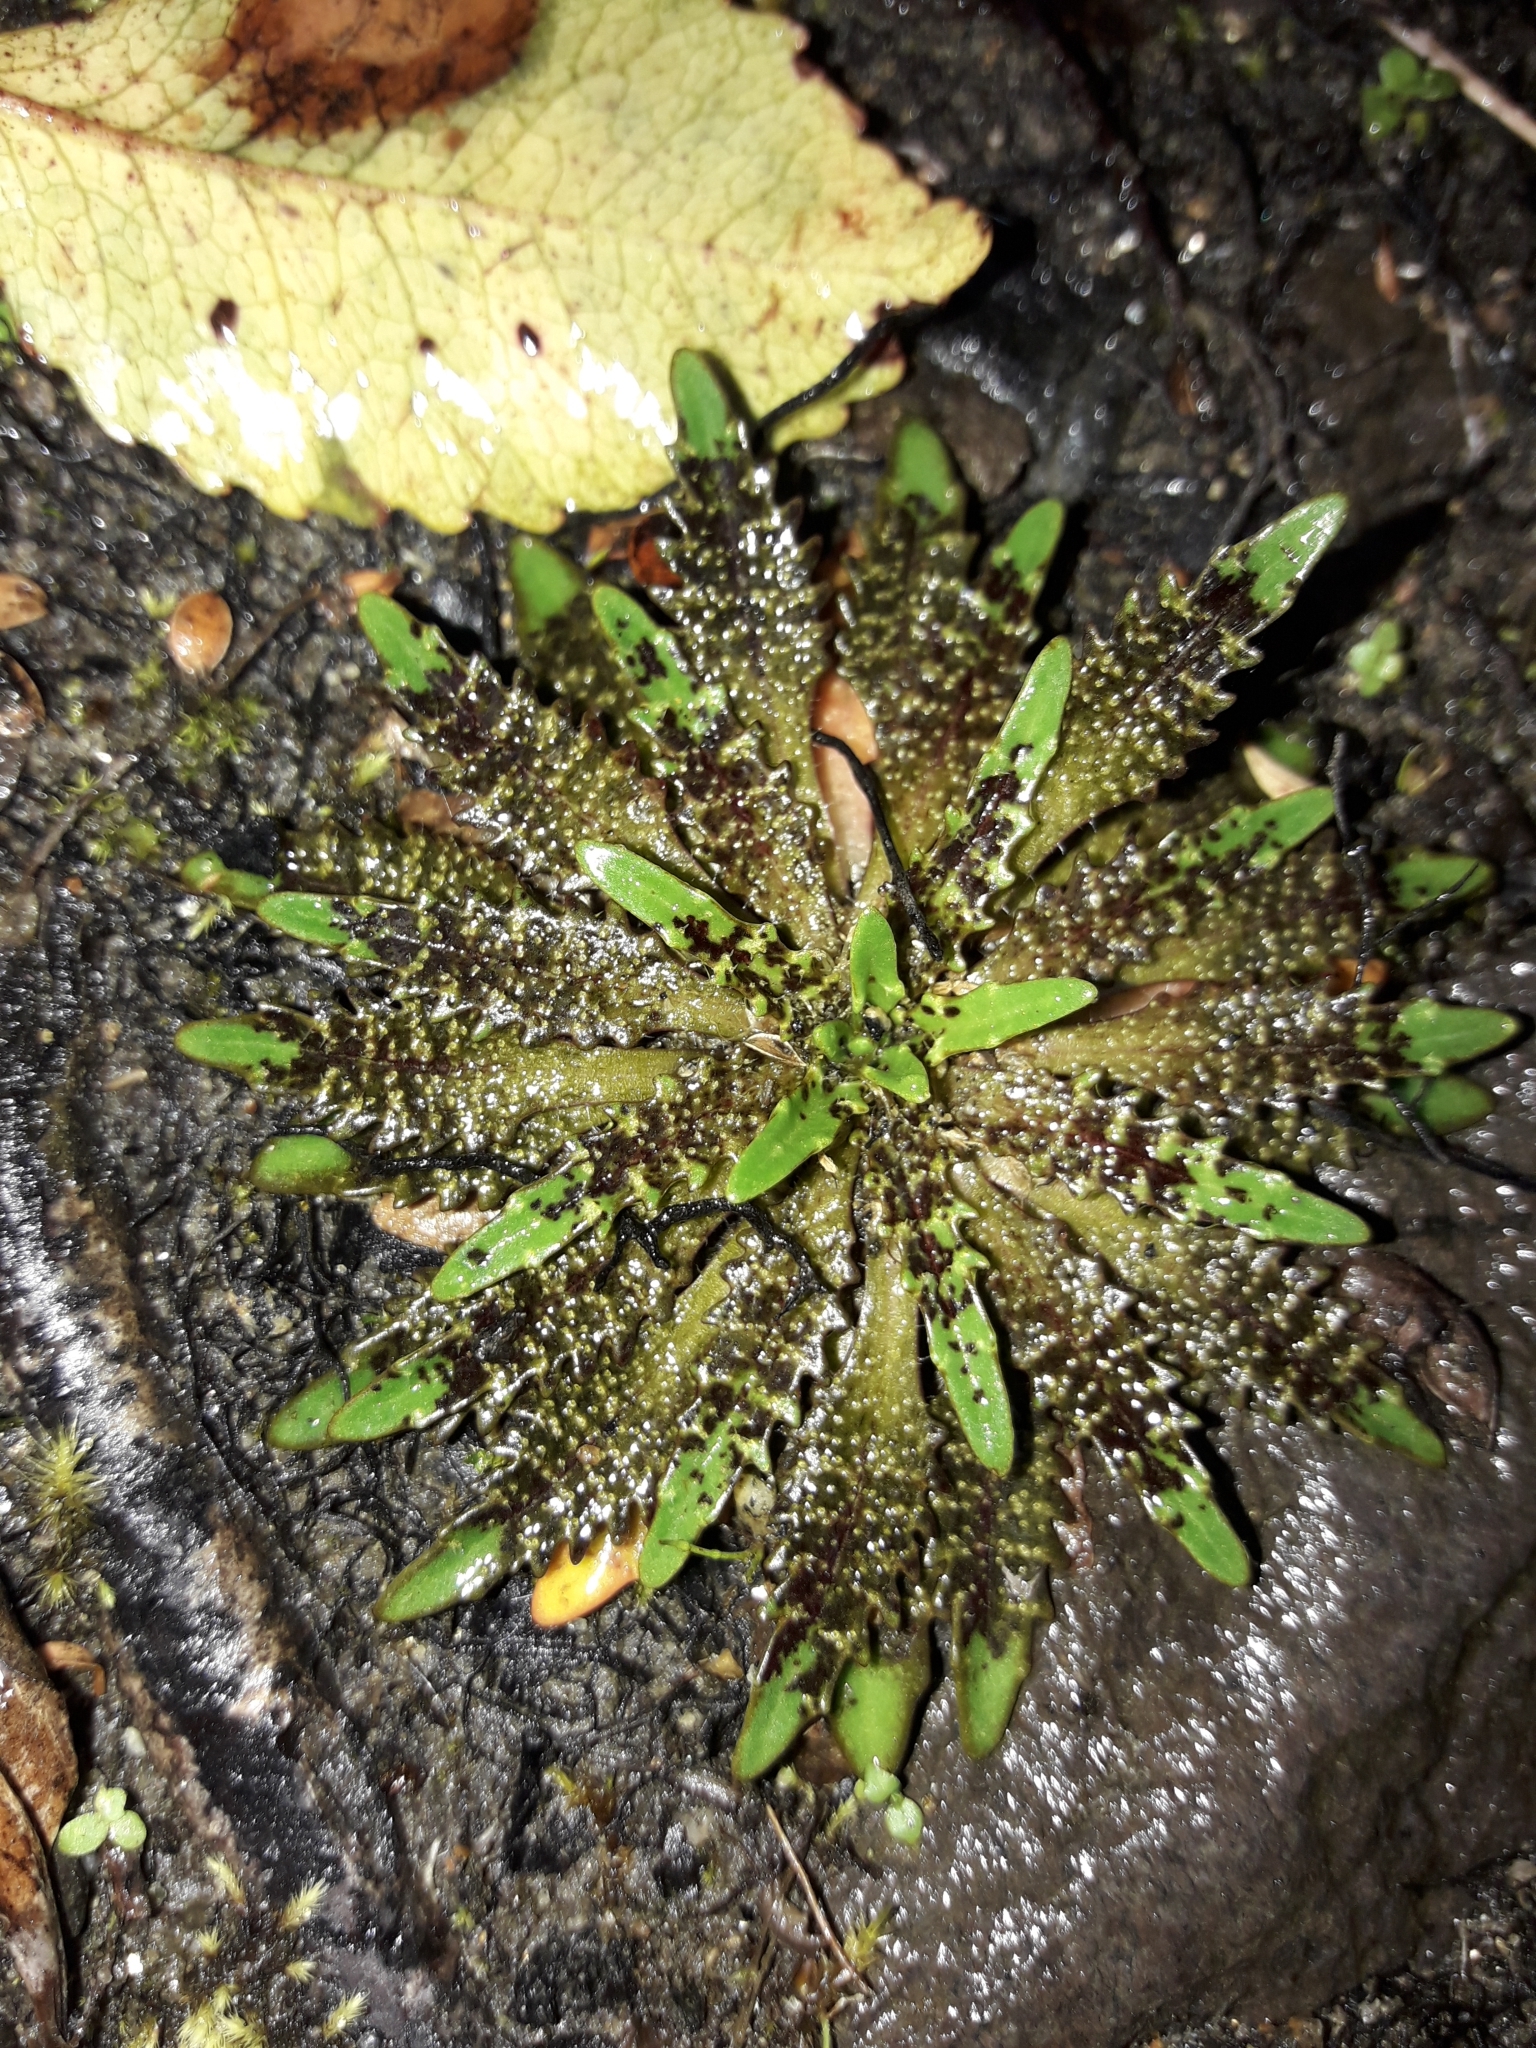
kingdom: Plantae
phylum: Tracheophyta
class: Magnoliopsida
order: Lamiales
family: Plantaginaceae
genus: Plantago
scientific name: Plantago triandra
